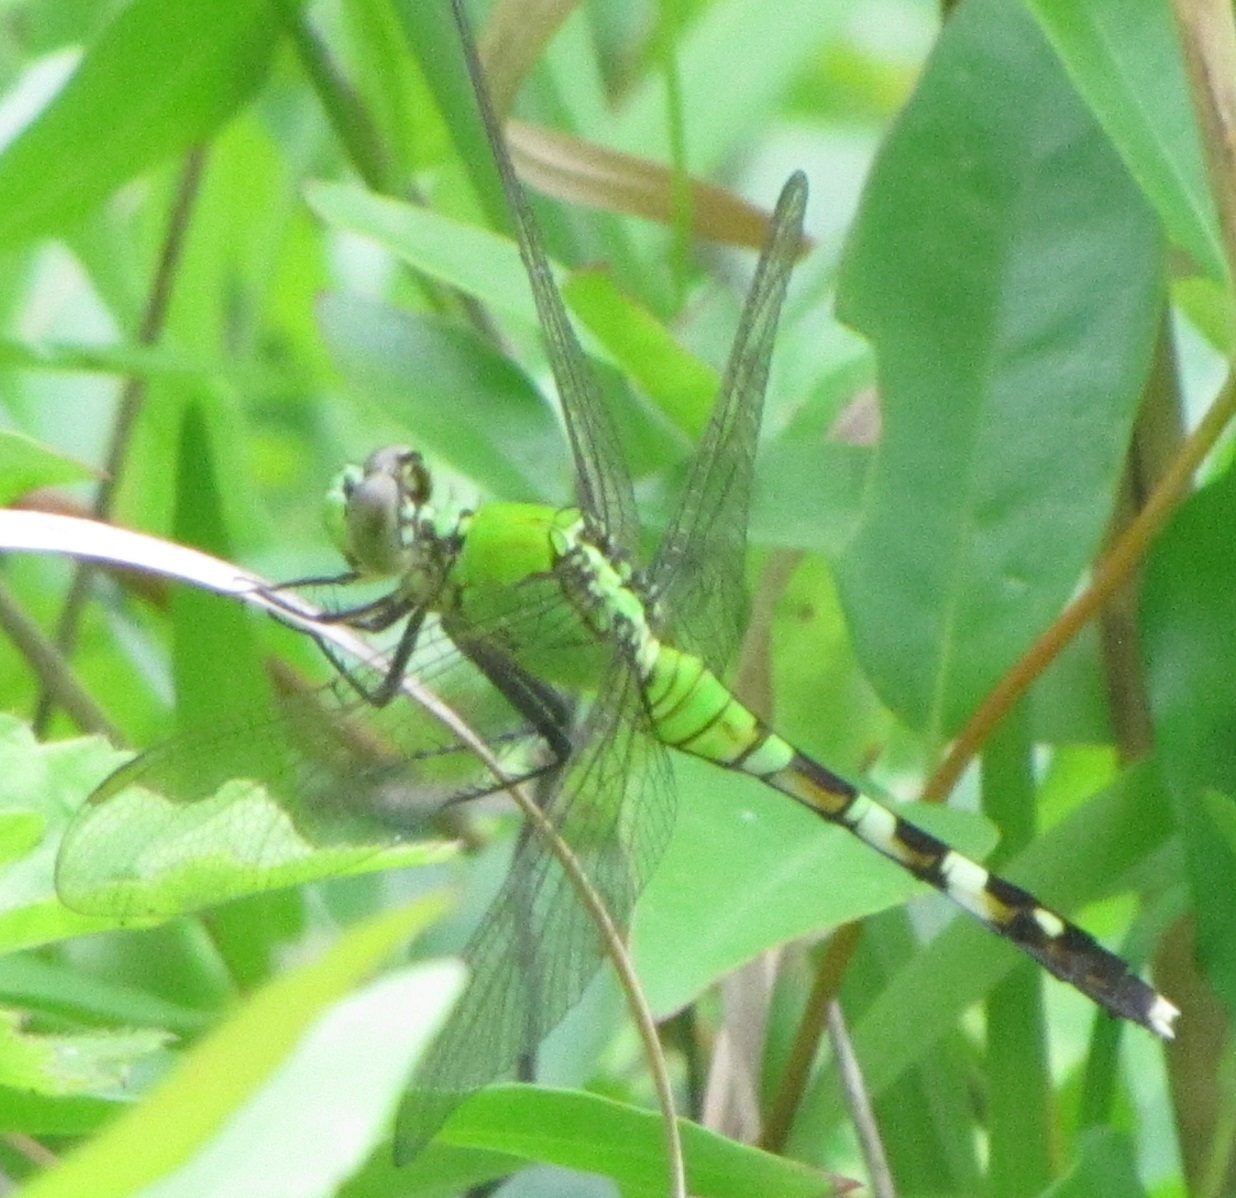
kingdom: Animalia
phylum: Arthropoda
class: Insecta
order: Odonata
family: Libellulidae
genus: Erythemis
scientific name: Erythemis simplicicollis
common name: Eastern pondhawk
